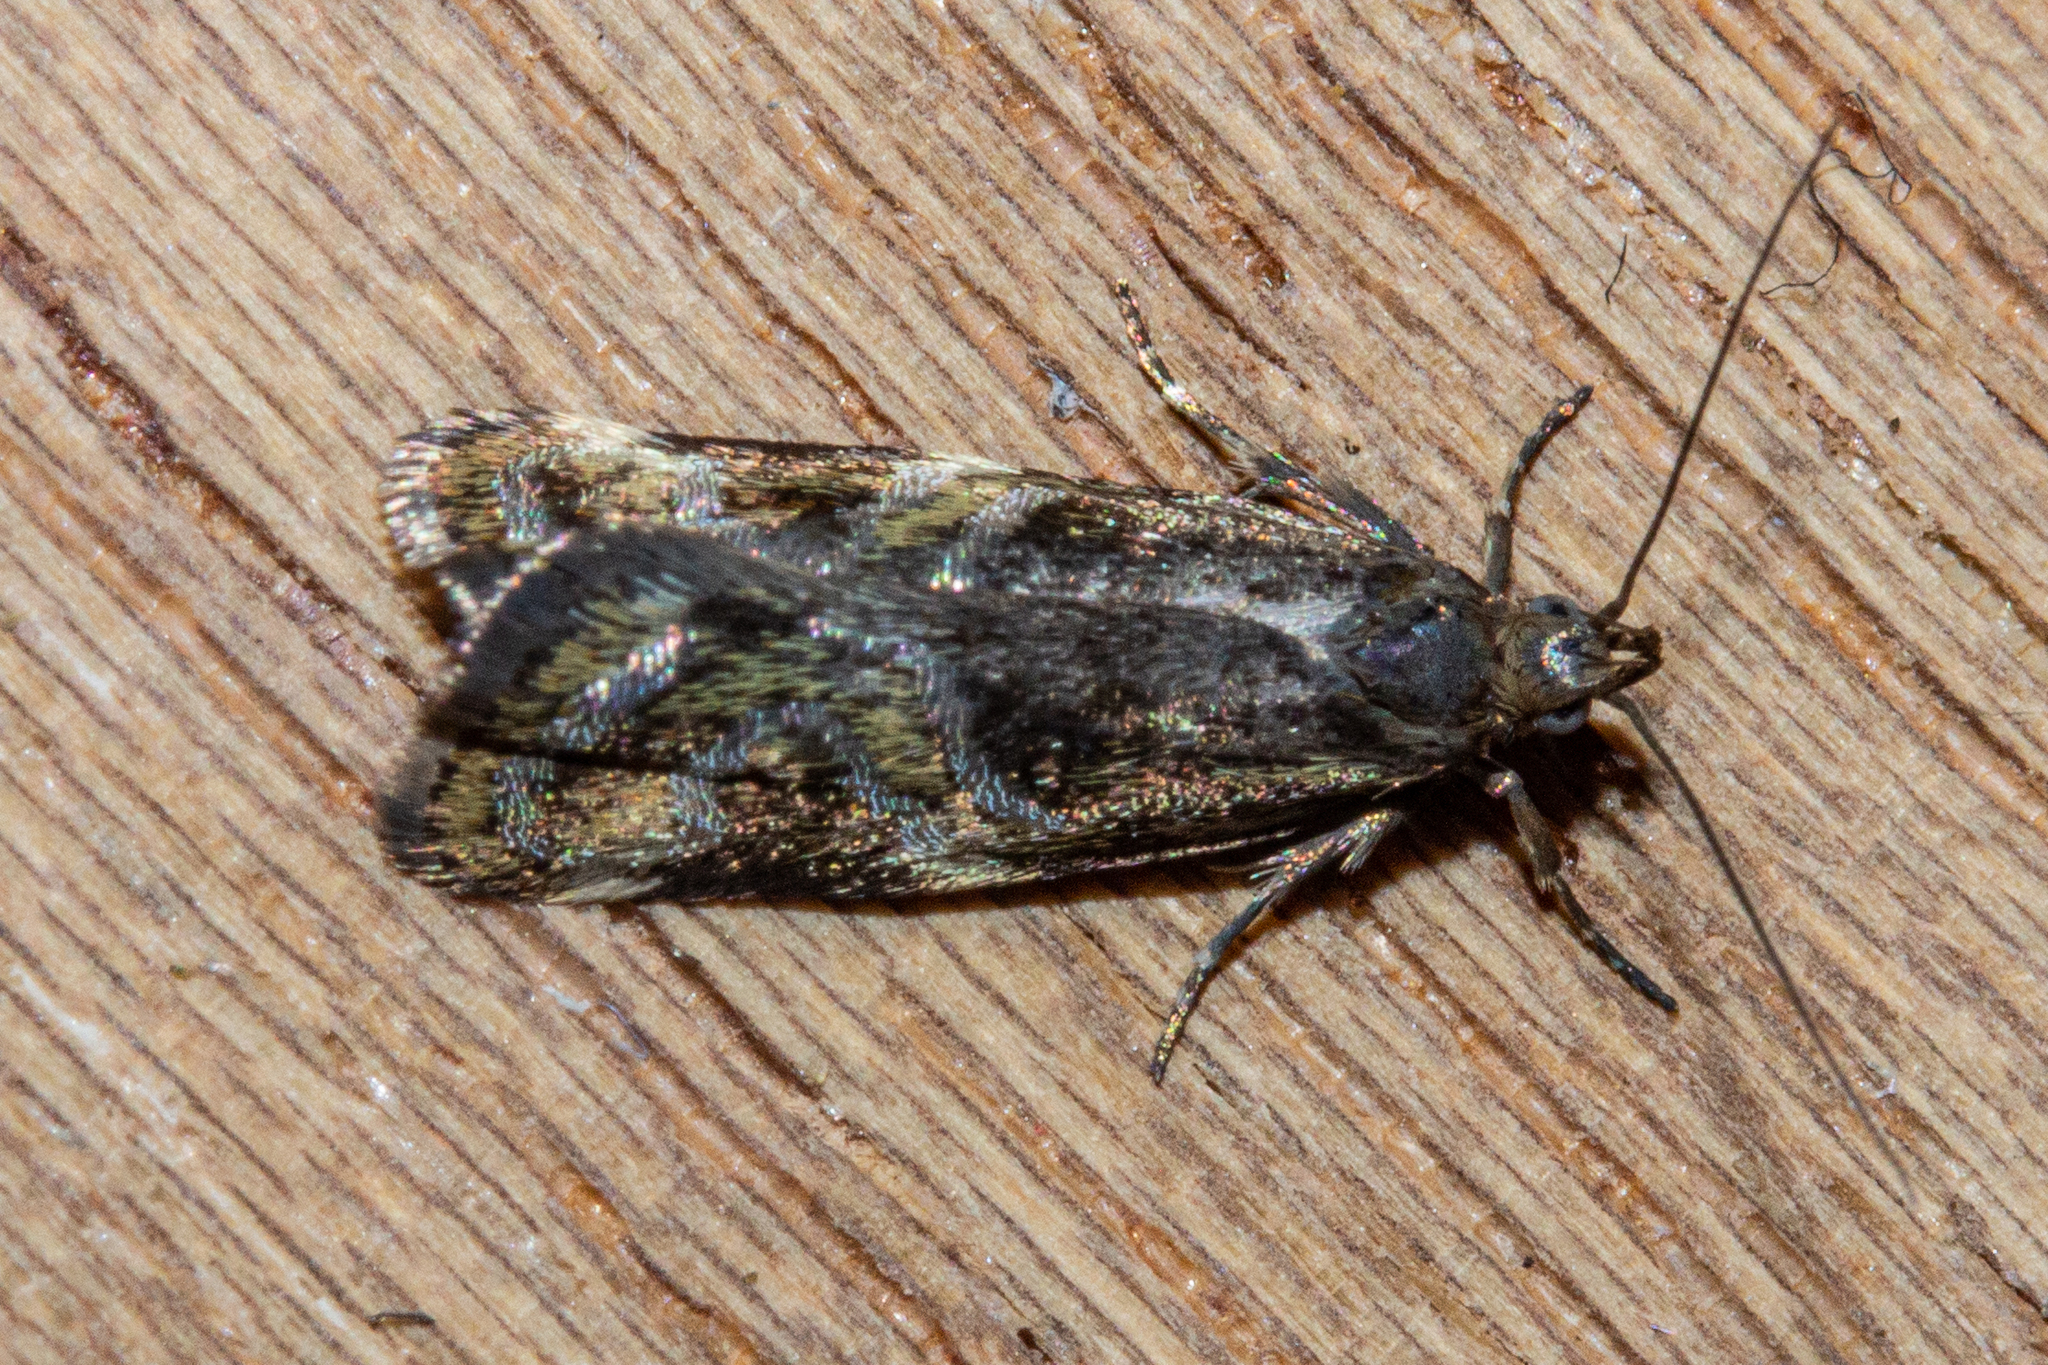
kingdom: Animalia
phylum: Arthropoda
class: Insecta
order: Lepidoptera
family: Oecophoridae
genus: Hierodoris
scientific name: Hierodoris s-fractum
